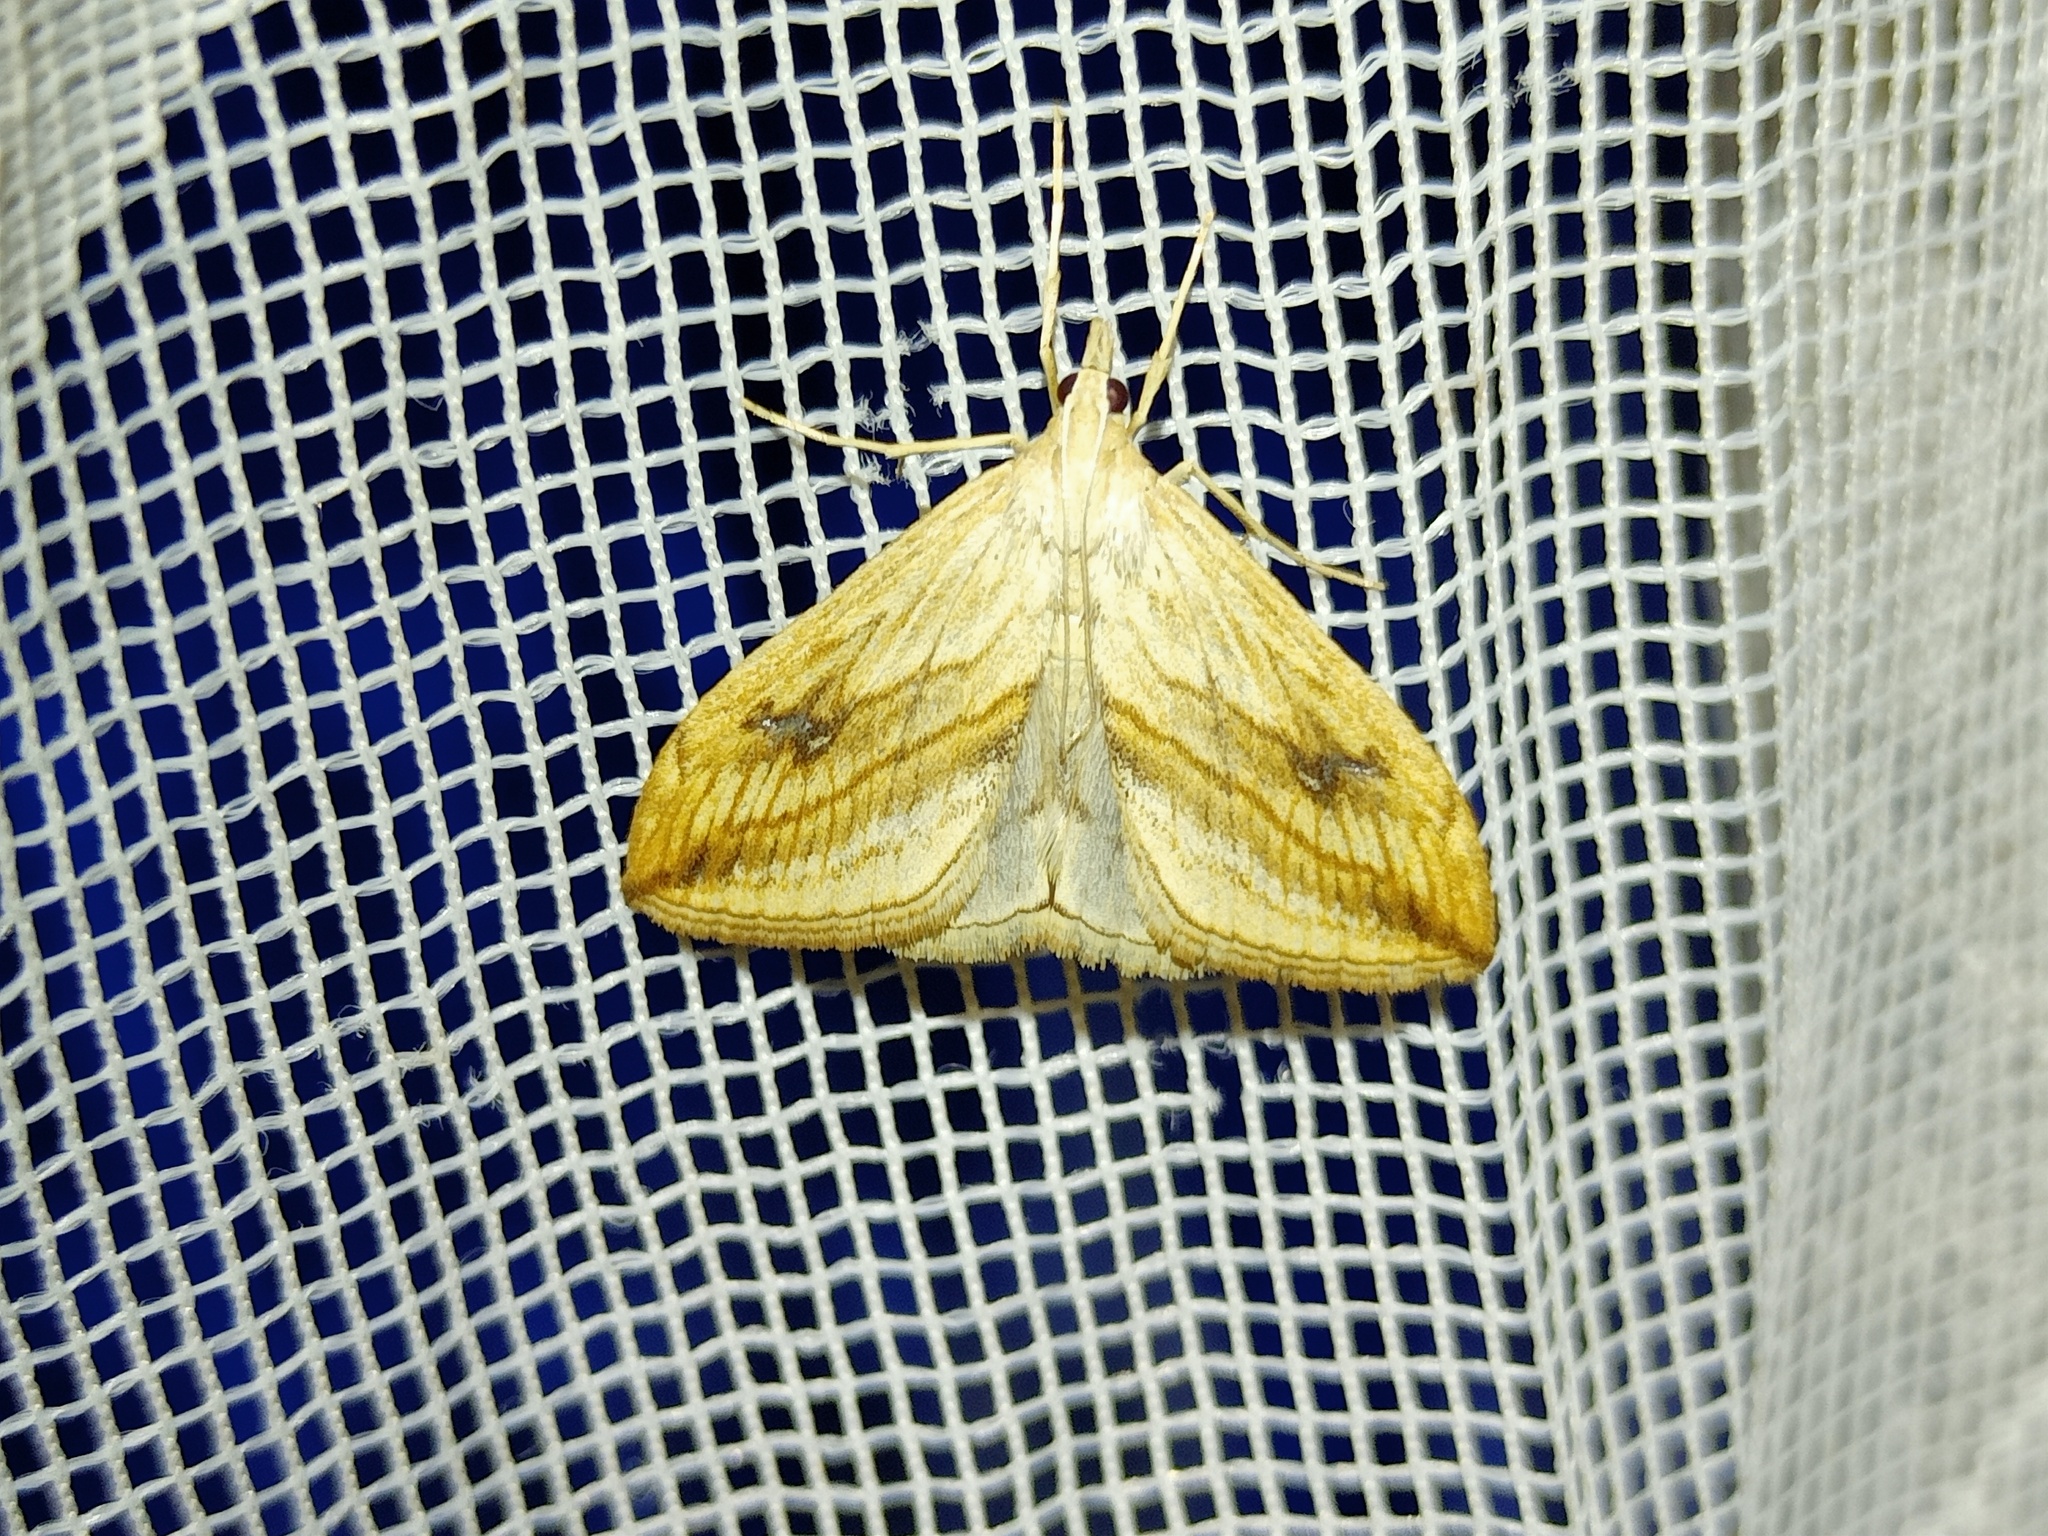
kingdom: Animalia
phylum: Arthropoda
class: Insecta
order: Lepidoptera
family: Crambidae
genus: Evergestis
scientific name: Evergestis forficalis
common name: Garden pebble
